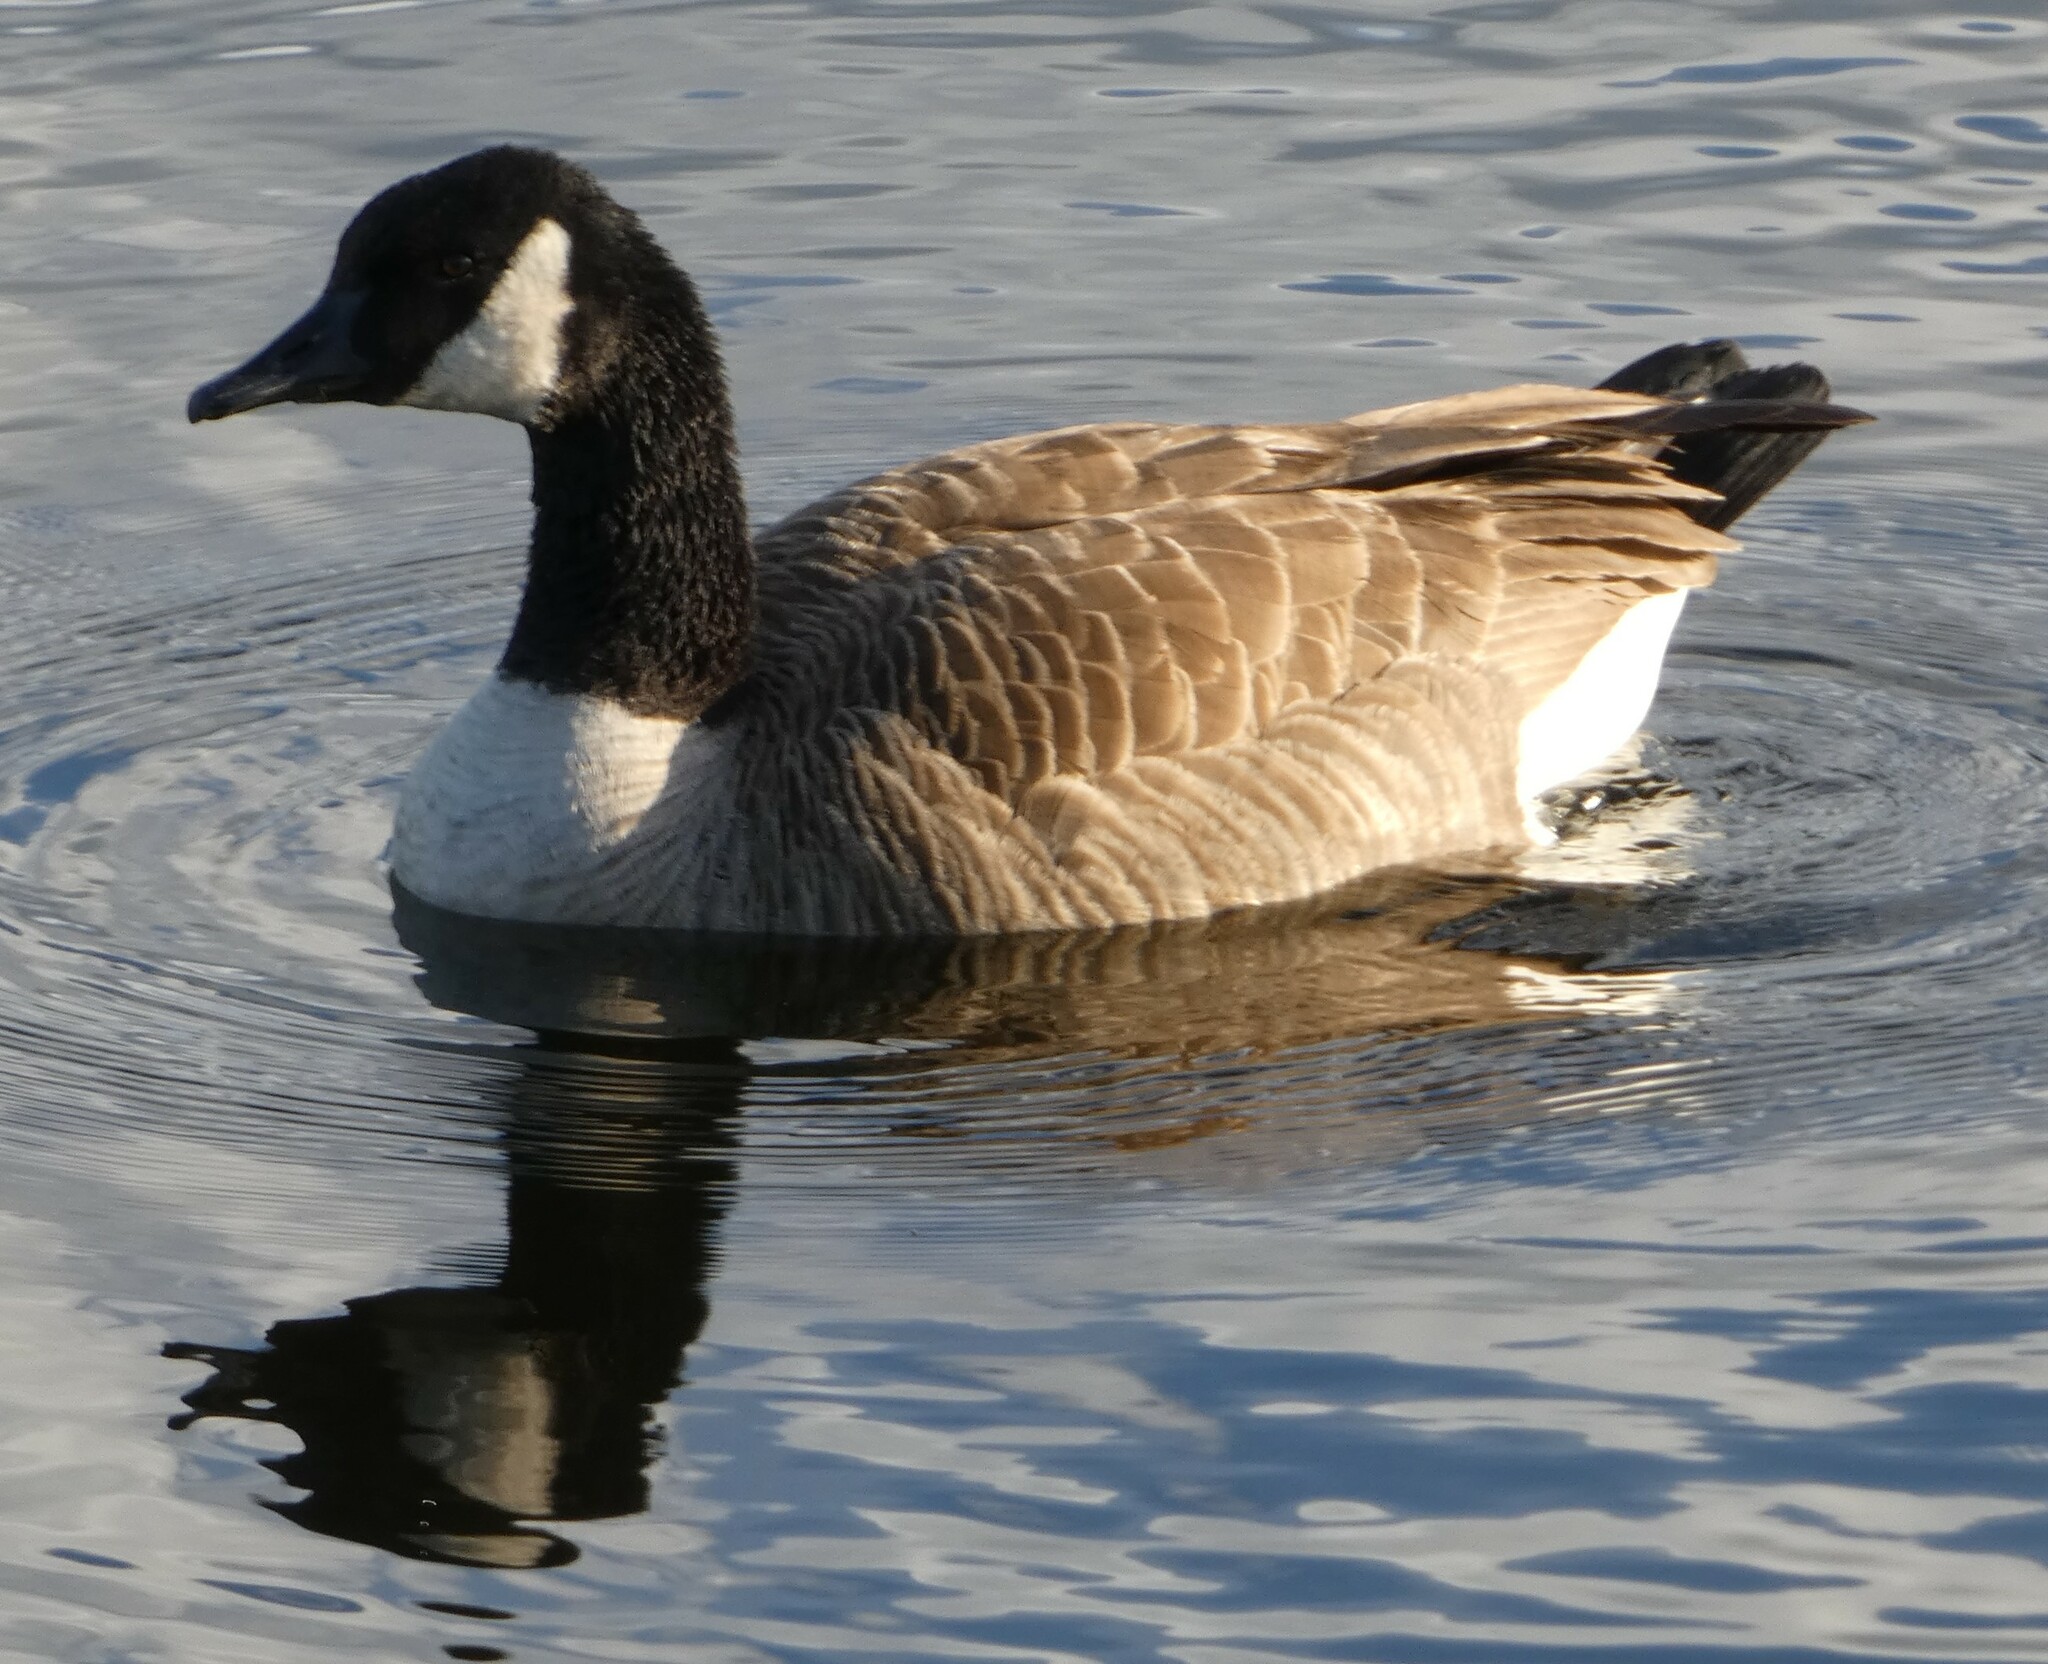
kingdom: Animalia
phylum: Chordata
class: Aves
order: Anseriformes
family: Anatidae
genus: Branta
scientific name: Branta canadensis
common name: Canada goose
